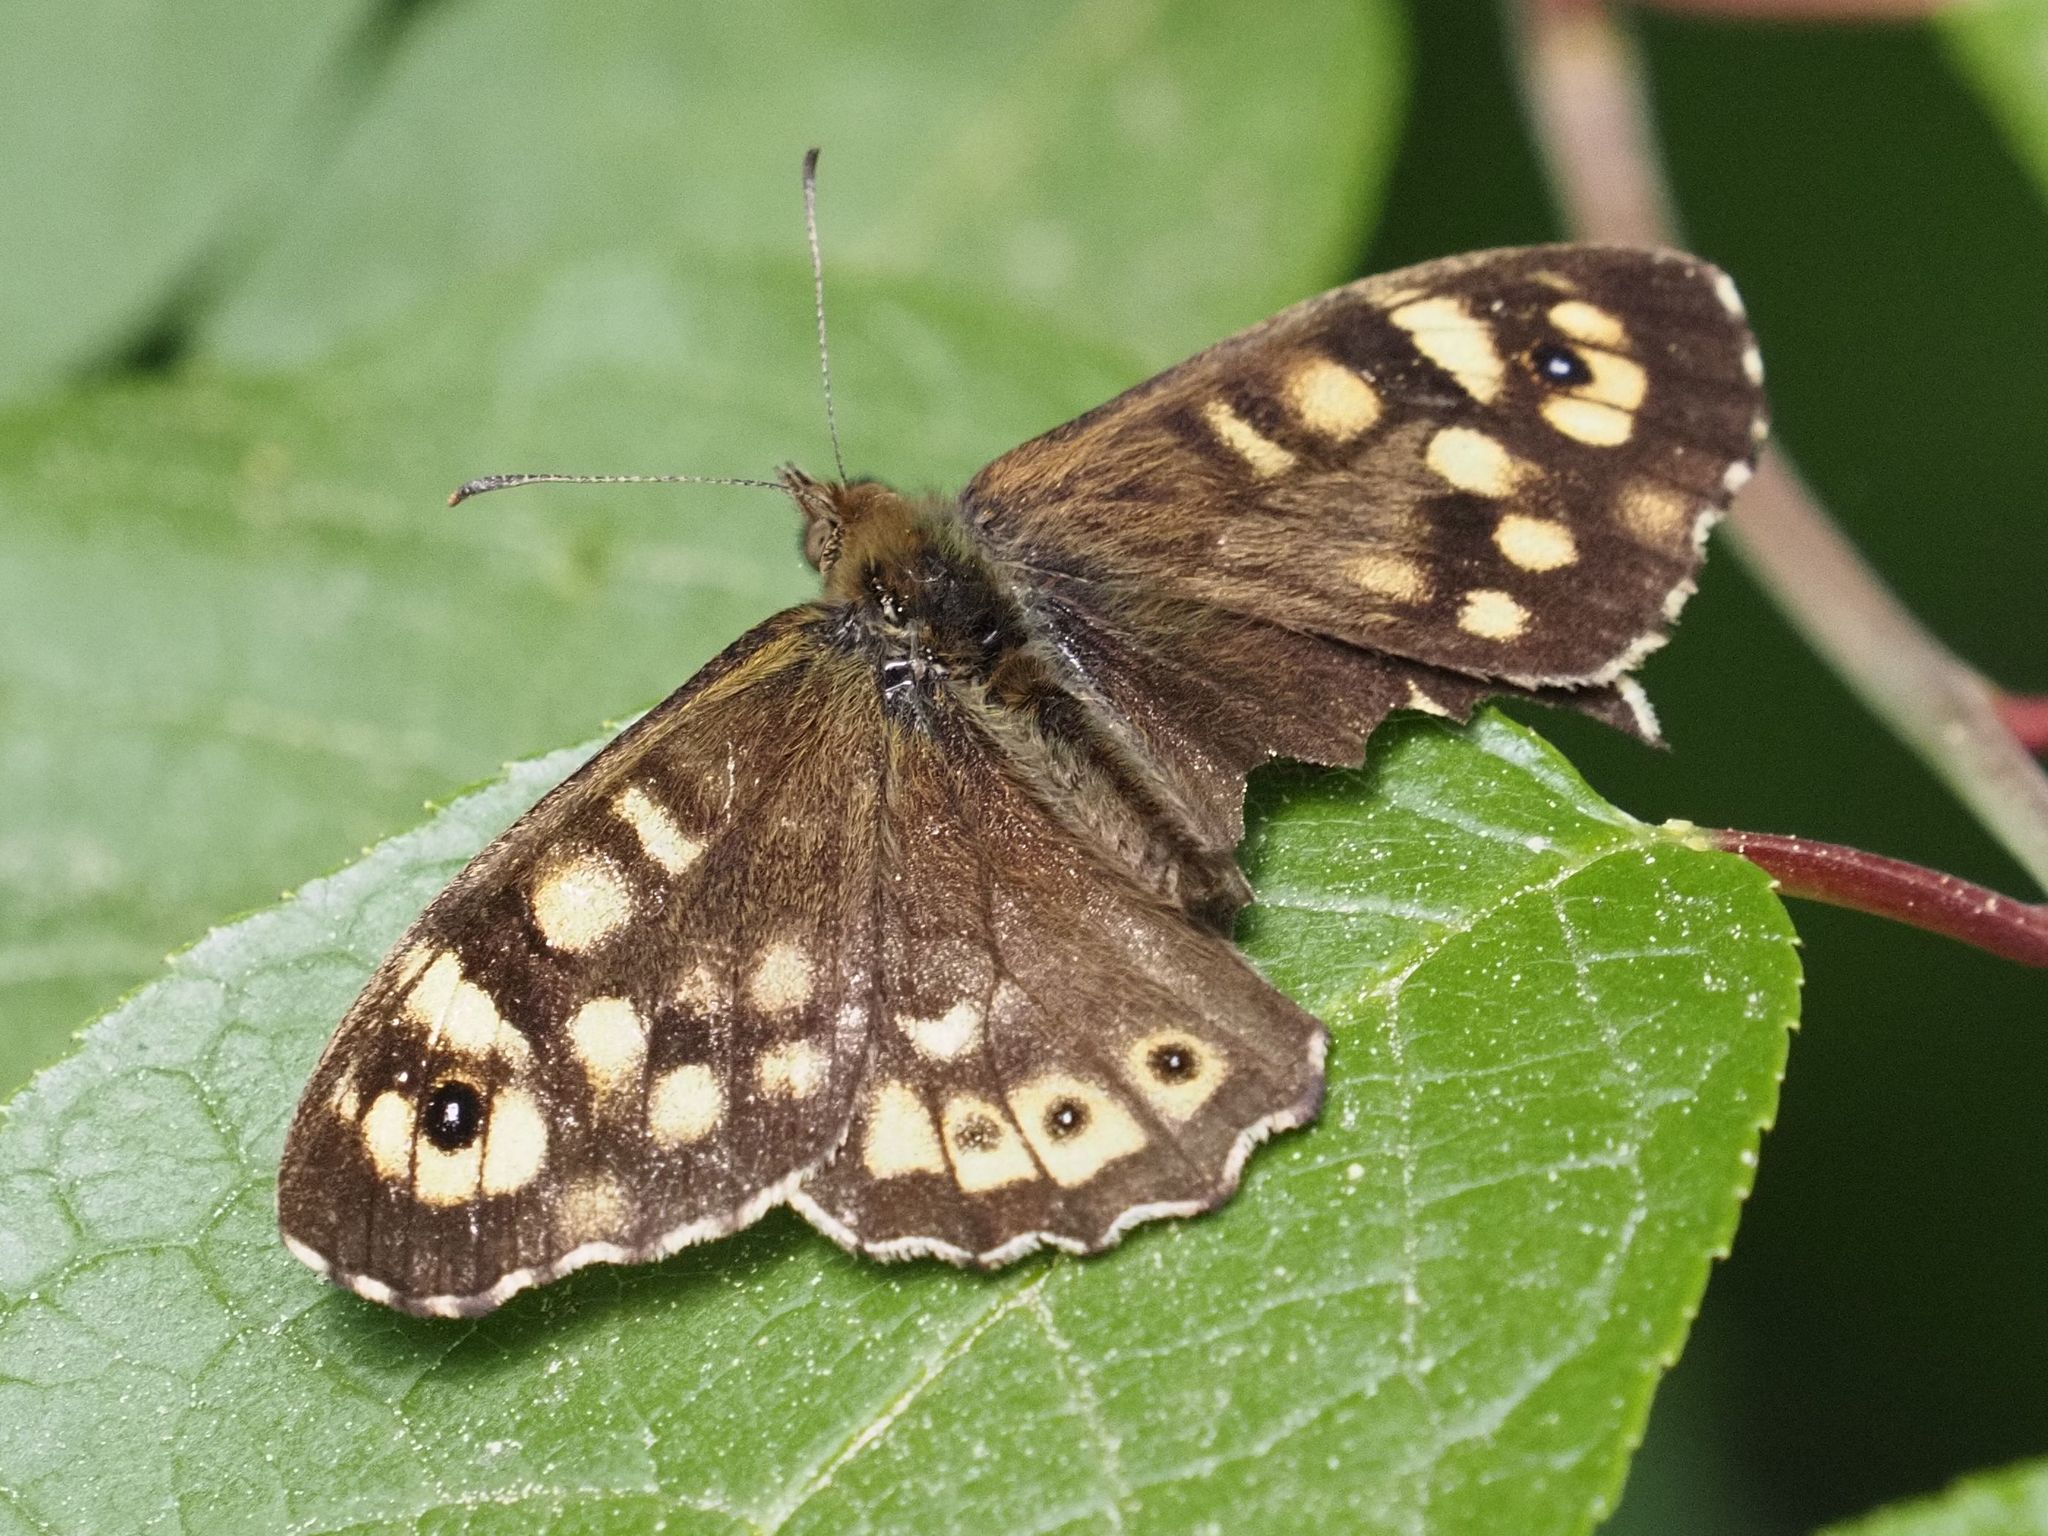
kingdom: Animalia
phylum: Arthropoda
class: Insecta
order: Lepidoptera
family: Nymphalidae
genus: Pararge
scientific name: Pararge aegeria
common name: Speckled wood
